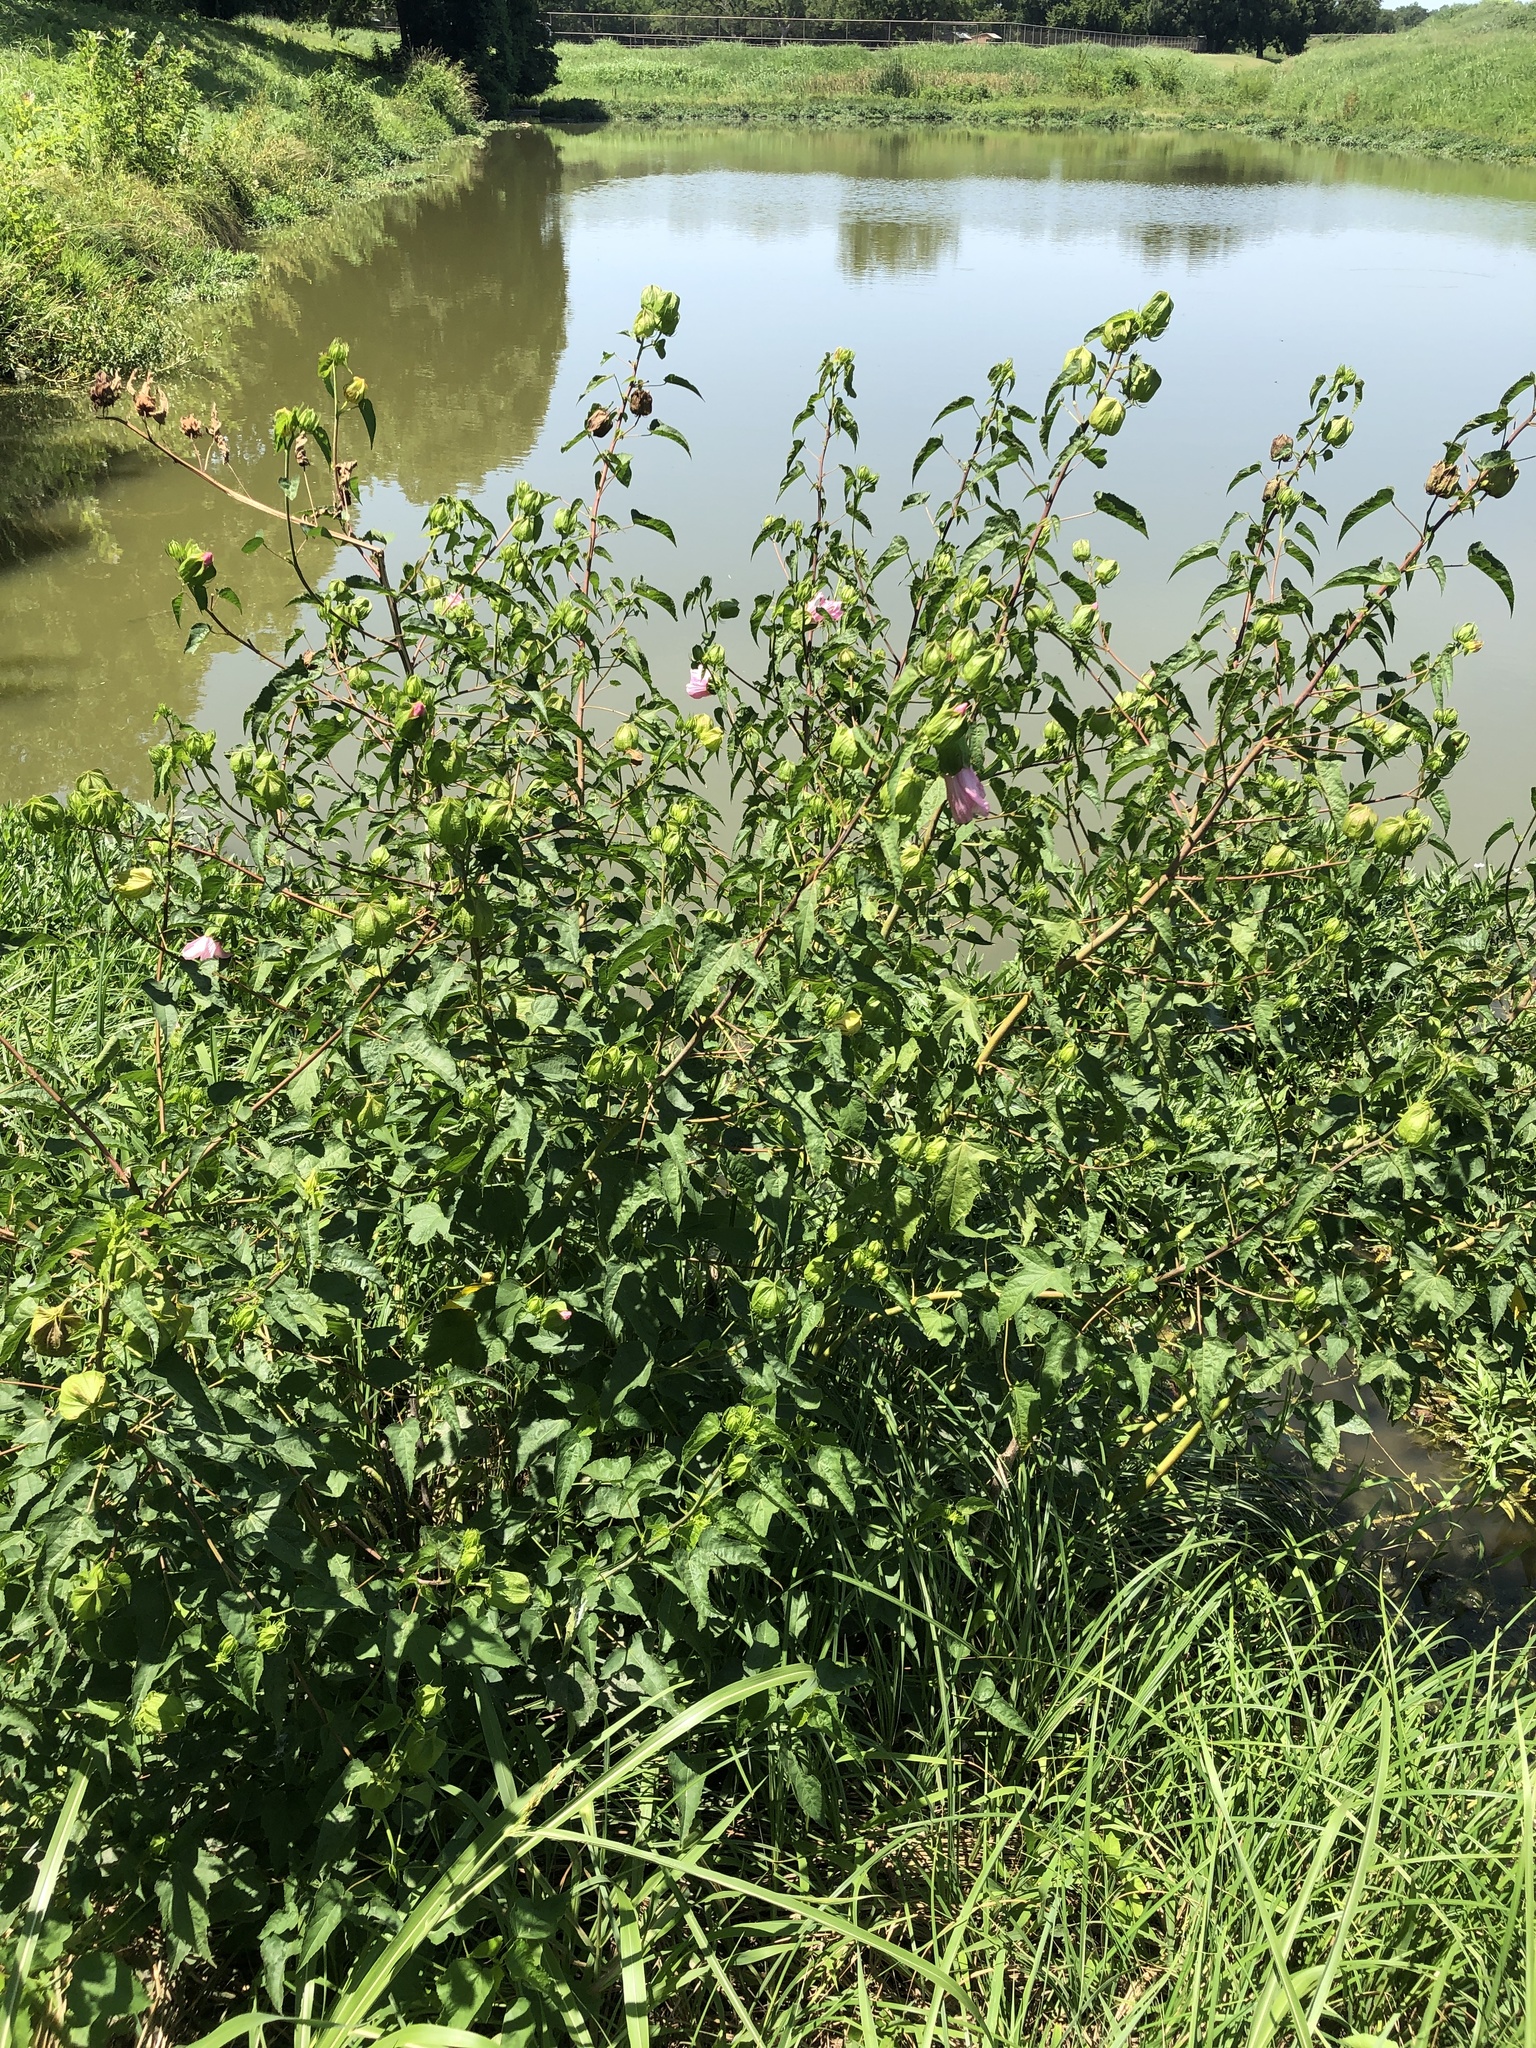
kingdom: Plantae
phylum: Tracheophyta
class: Magnoliopsida
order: Malvales
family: Malvaceae
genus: Hibiscus
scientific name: Hibiscus laevis
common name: Scarlet rose-mallow
